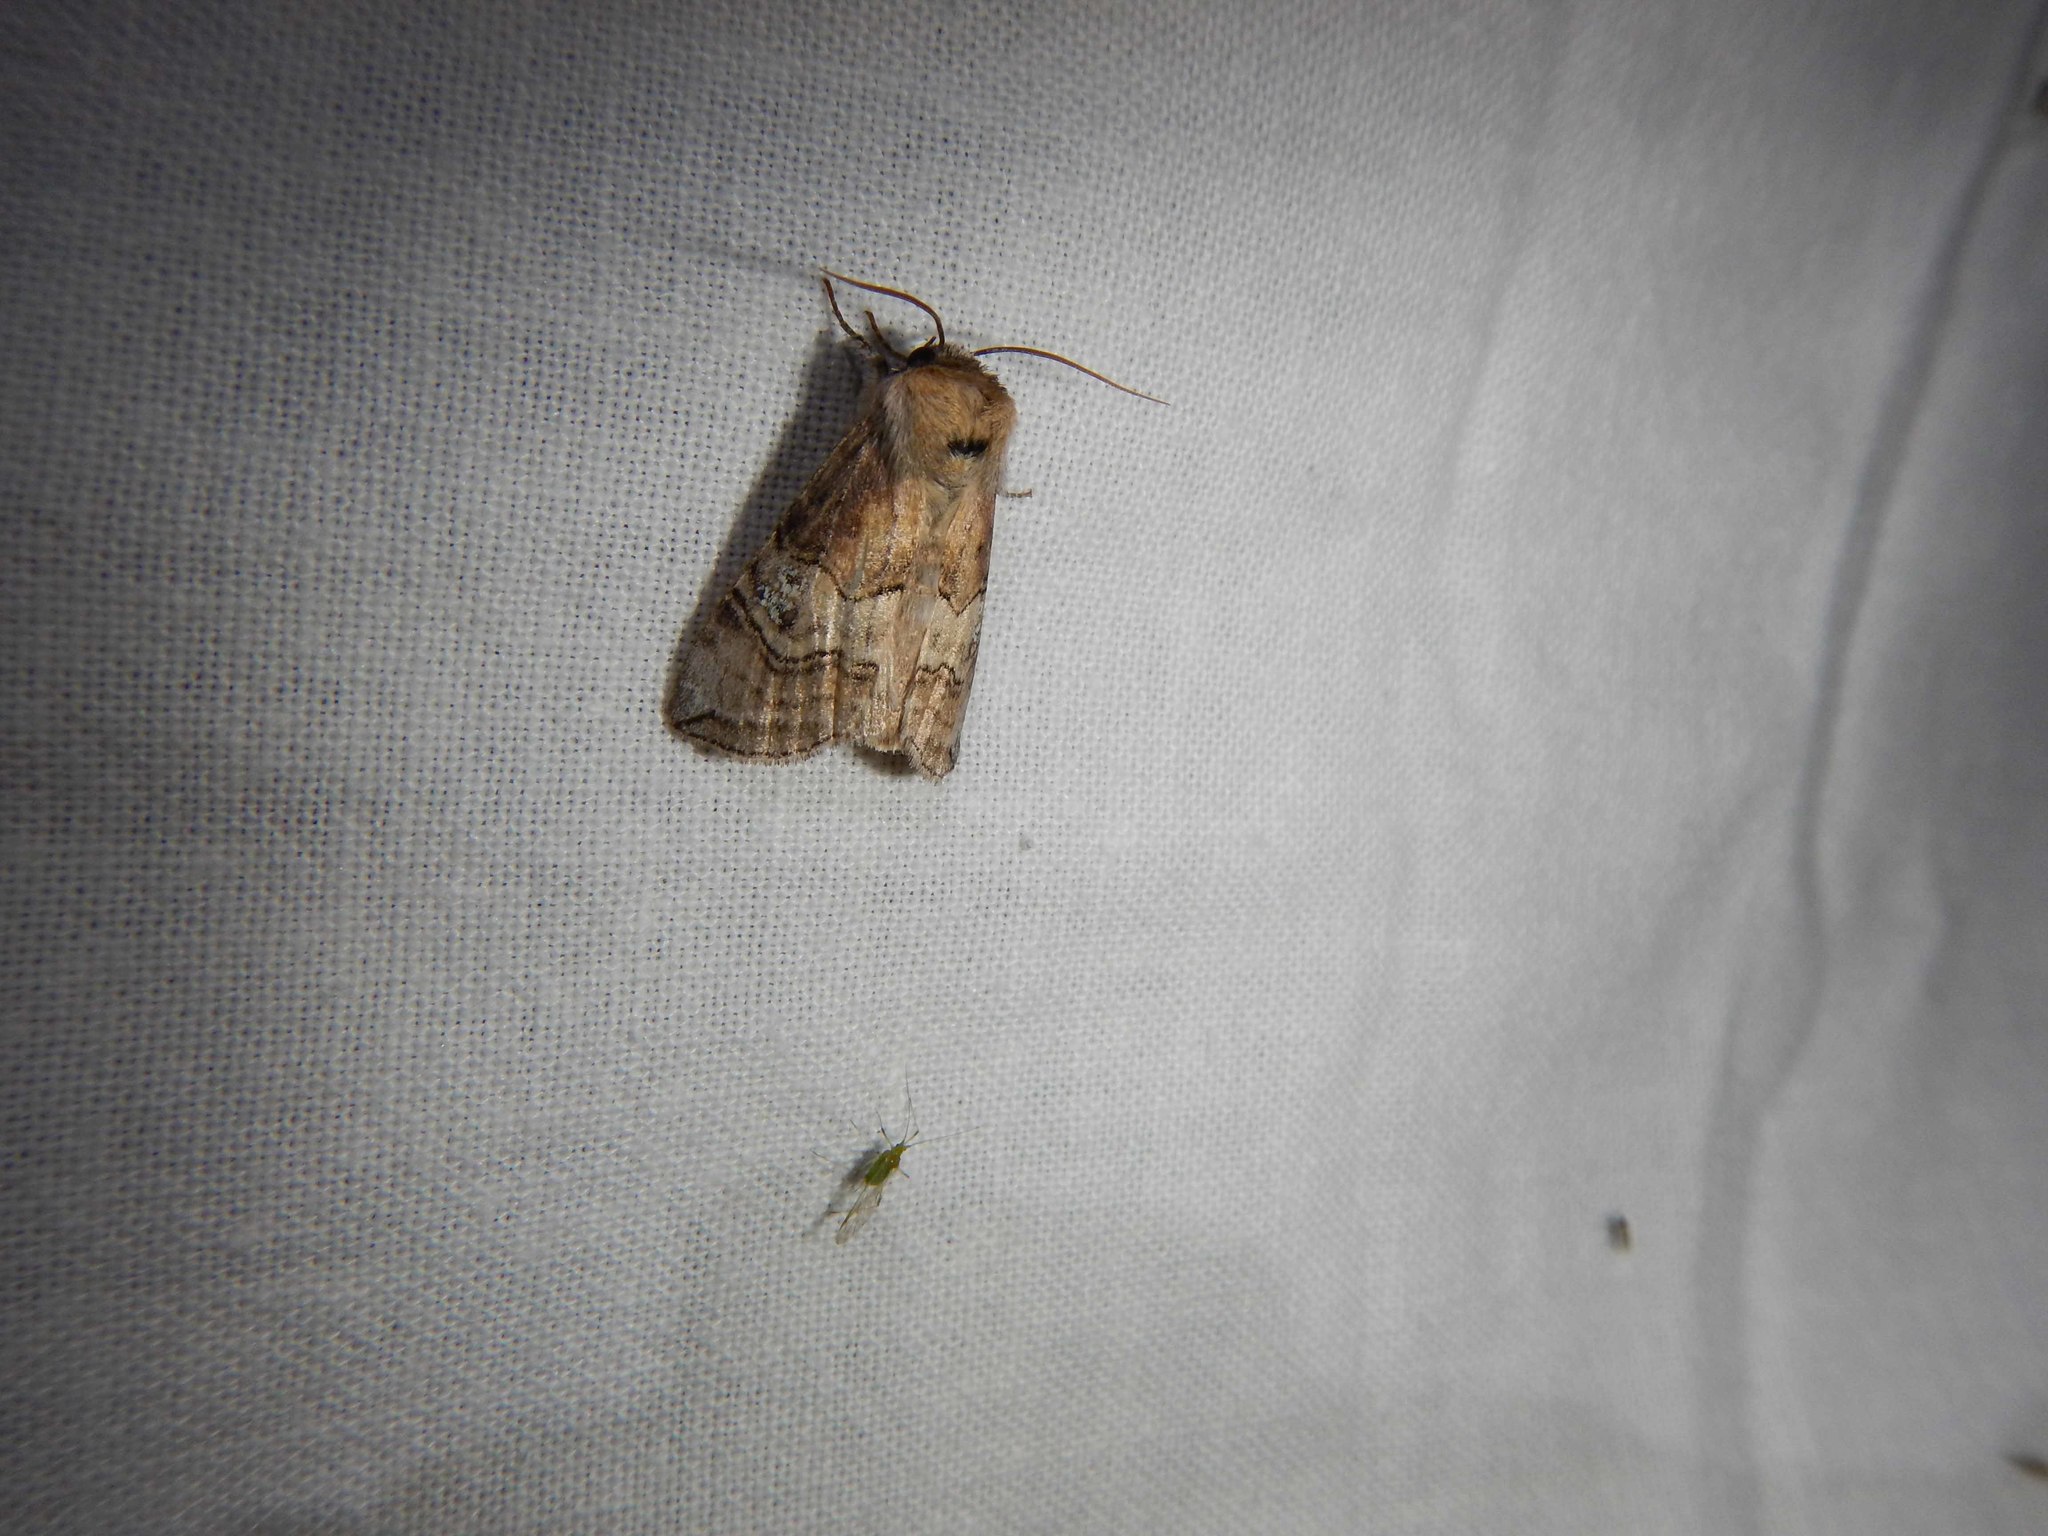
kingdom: Animalia
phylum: Arthropoda
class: Insecta
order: Lepidoptera
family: Drepanidae
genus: Tethea
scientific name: Tethea ocularis
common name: Figure of eighty
